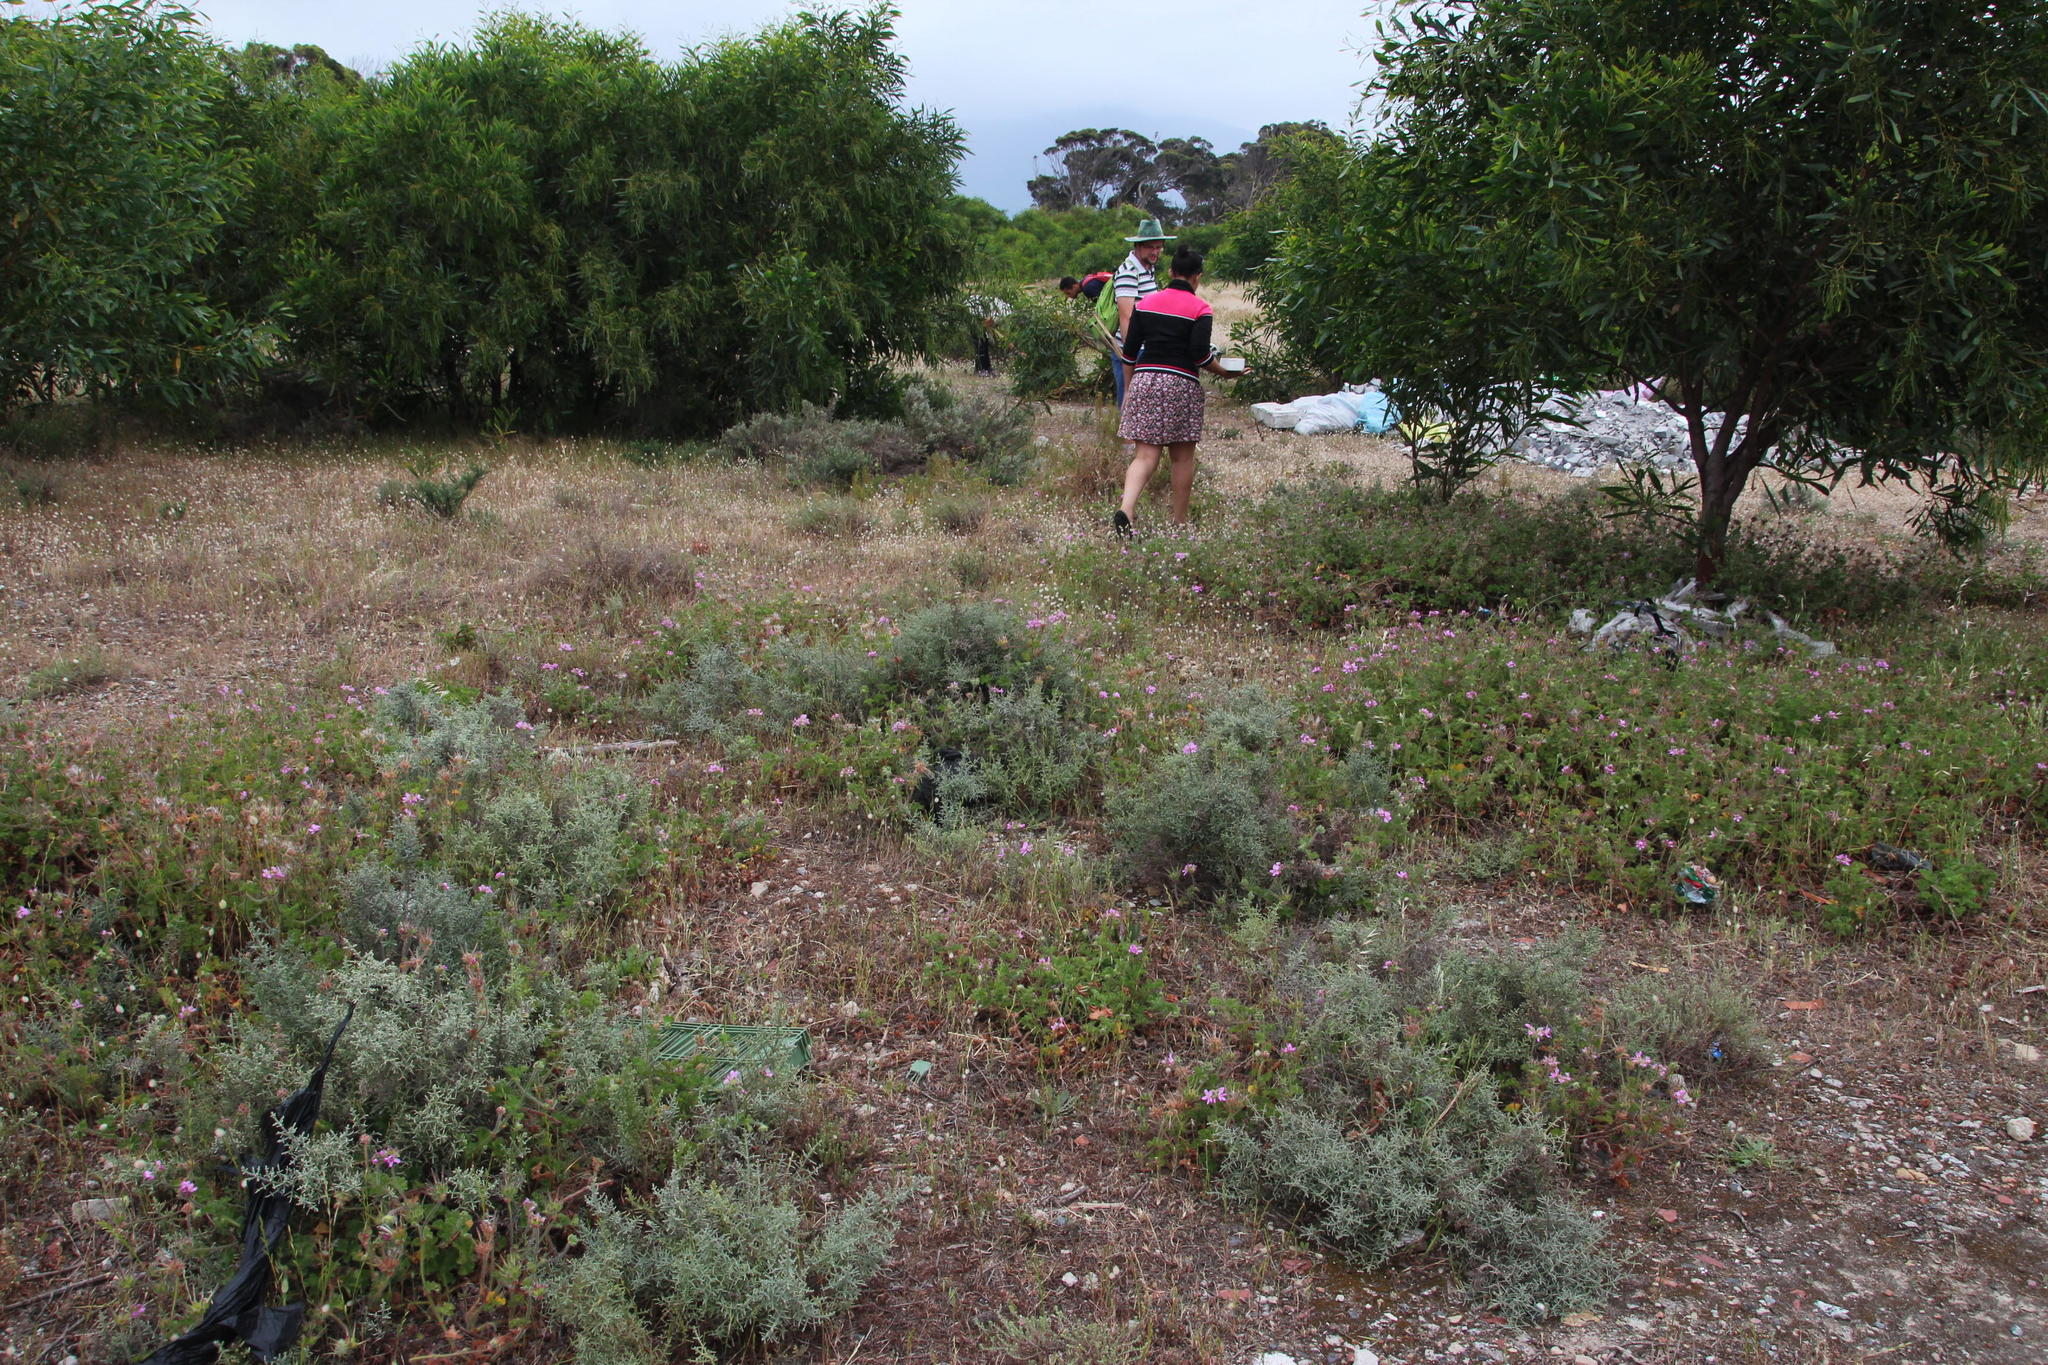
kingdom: Plantae
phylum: Tracheophyta
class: Magnoliopsida
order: Geraniales
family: Geraniaceae
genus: Pelargonium
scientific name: Pelargonium capitatum
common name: Rose scented geranium
